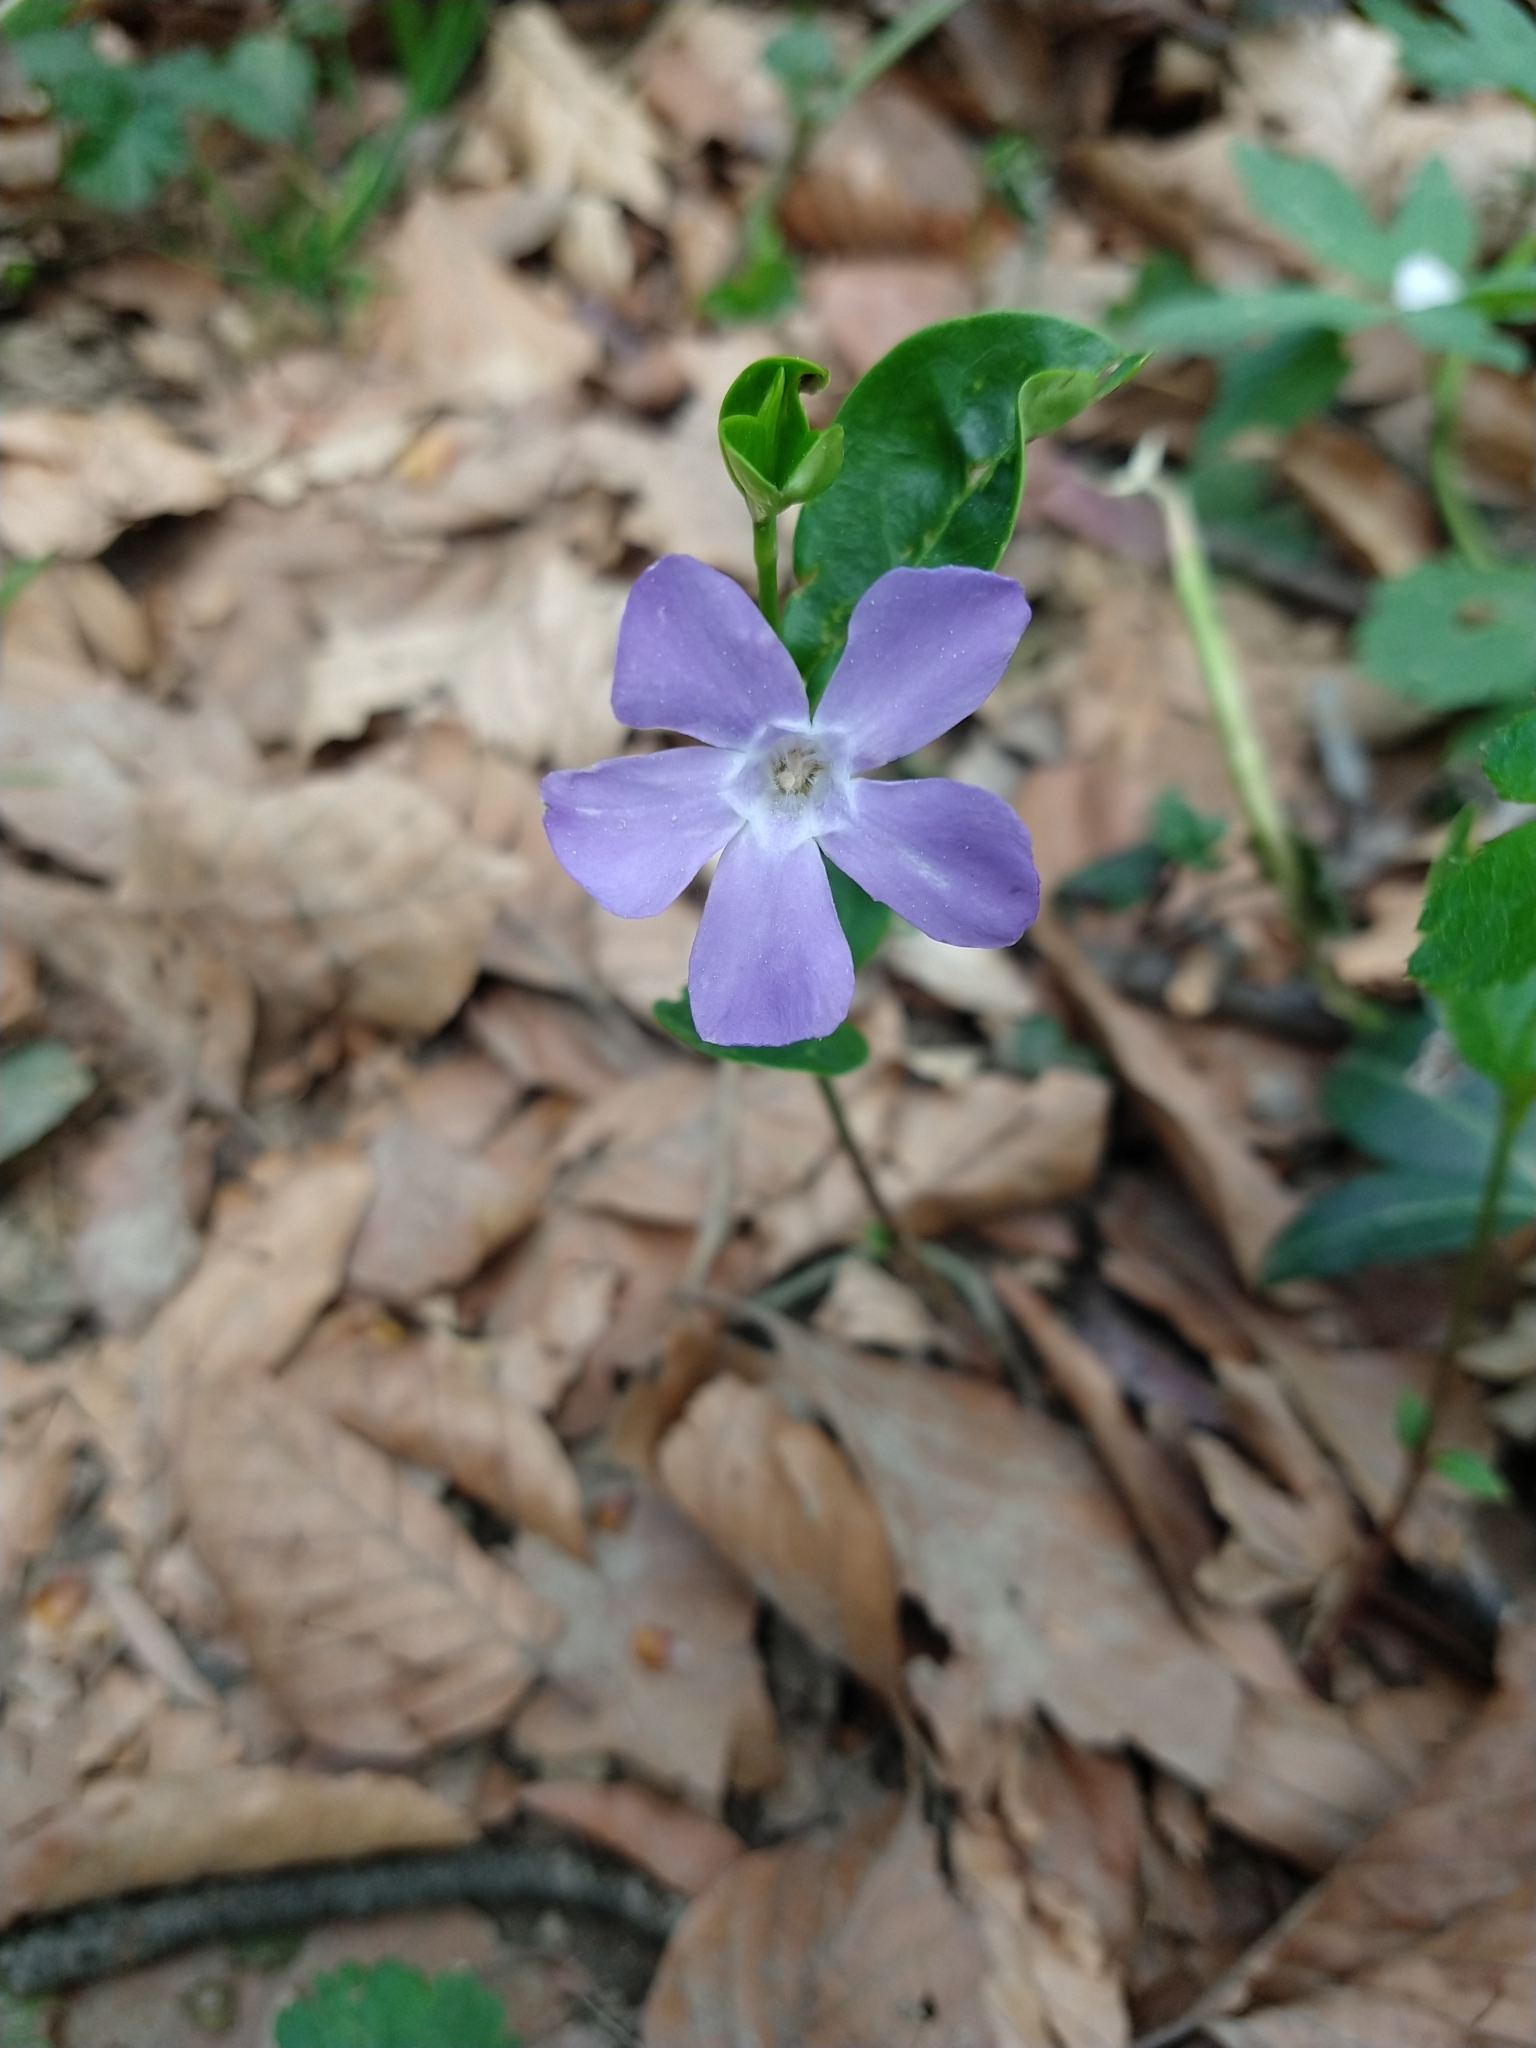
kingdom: Plantae
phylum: Tracheophyta
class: Magnoliopsida
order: Gentianales
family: Apocynaceae
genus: Vinca
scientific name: Vinca minor
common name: Lesser periwinkle
